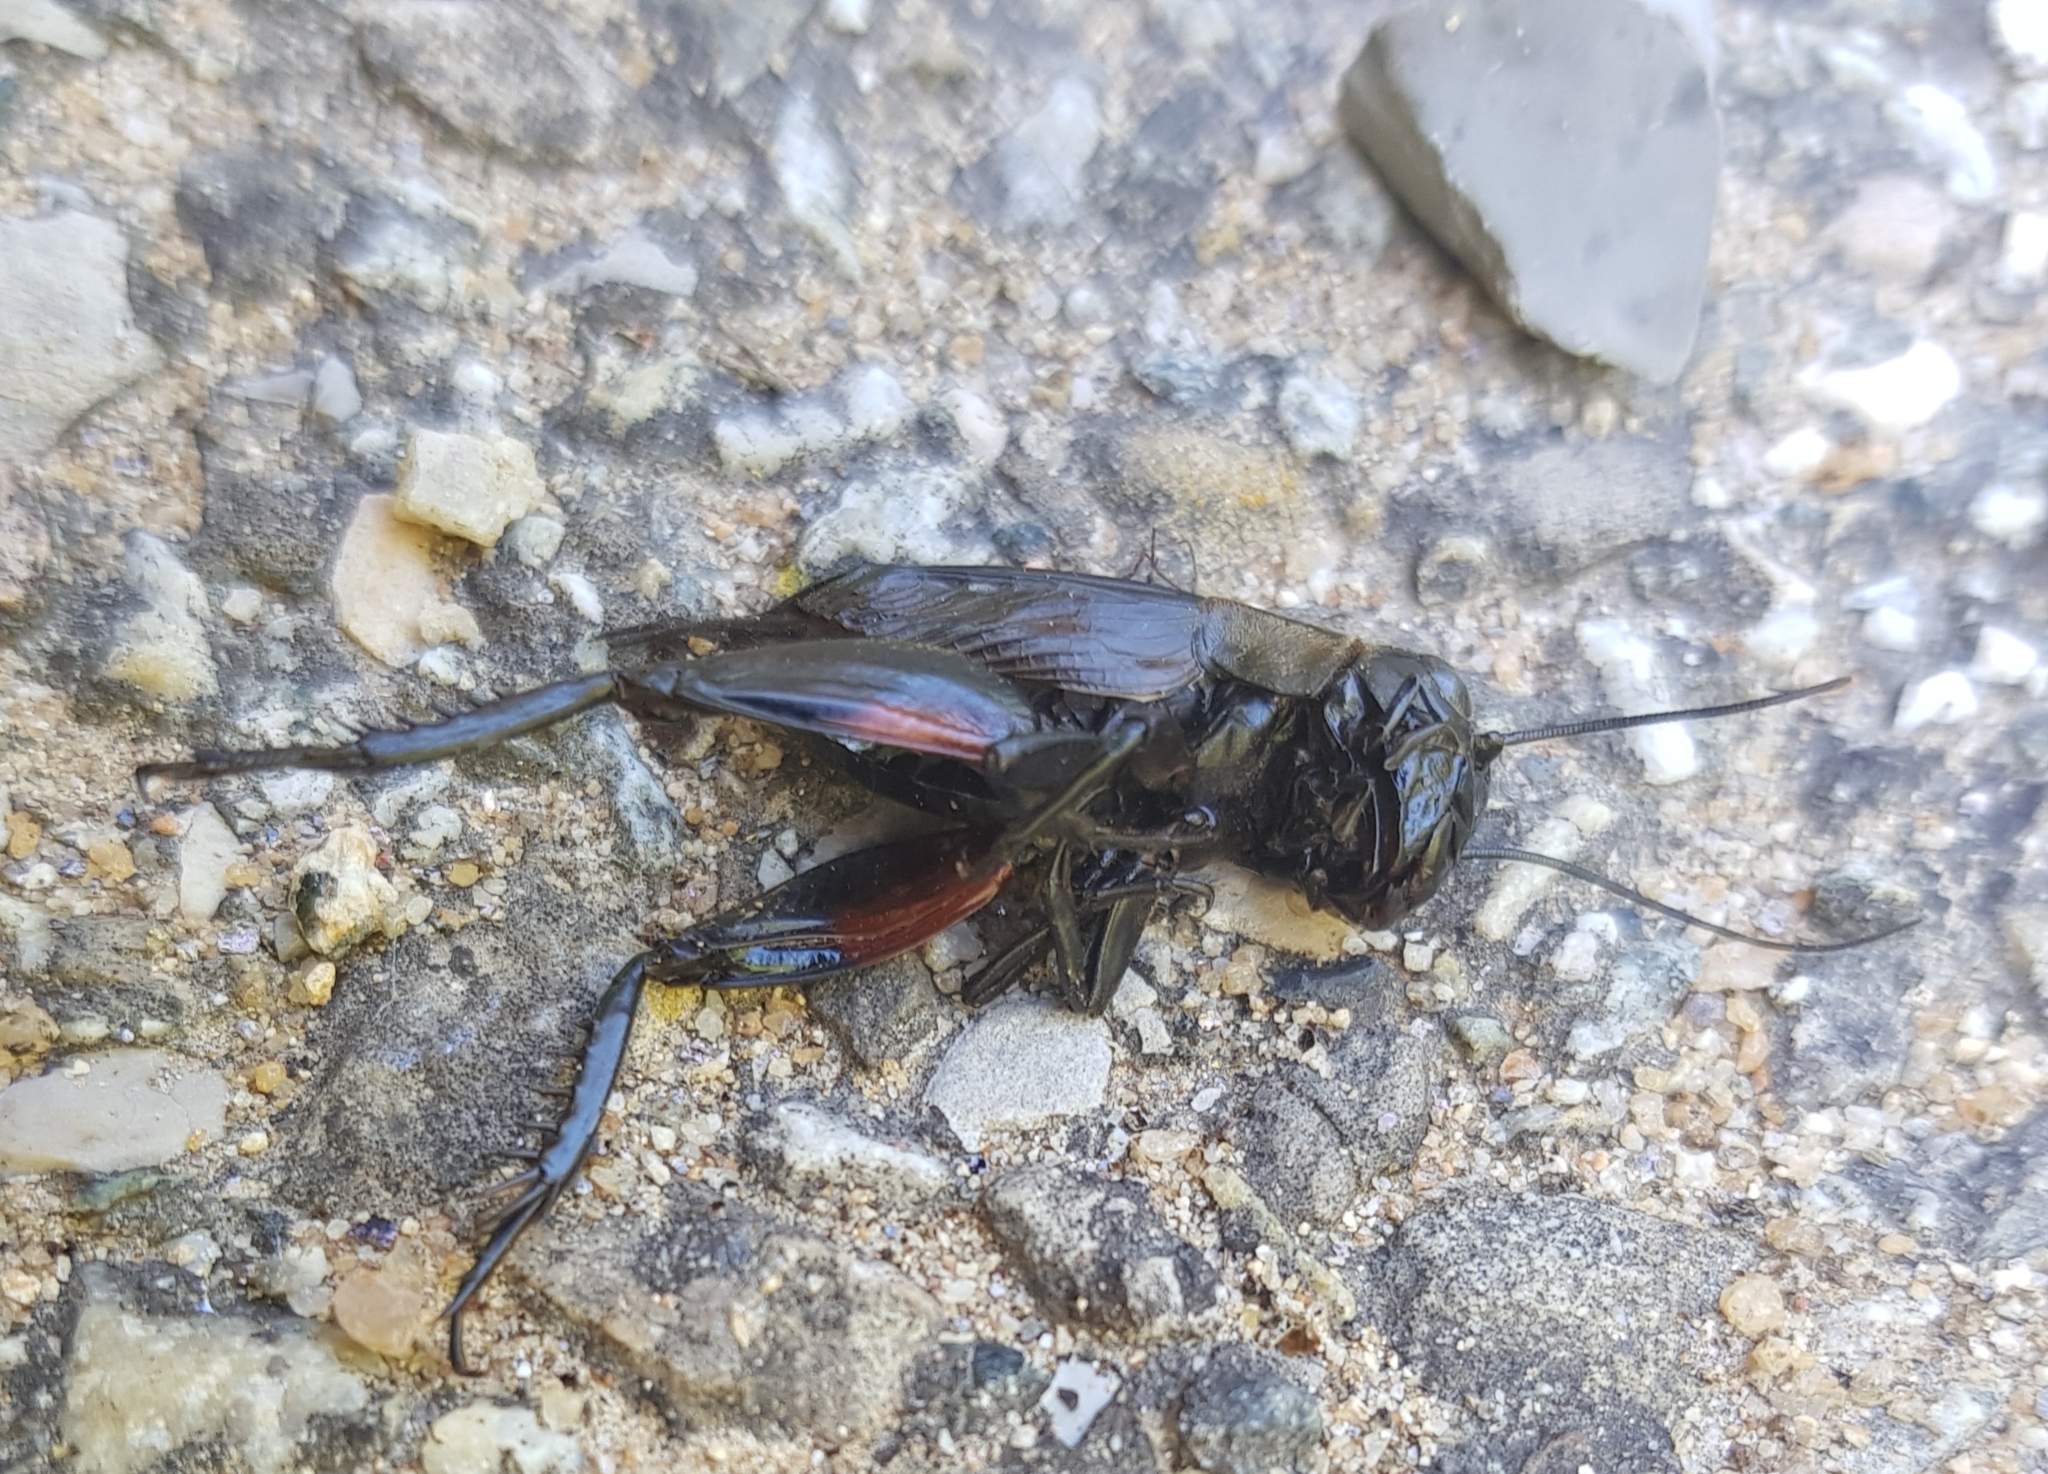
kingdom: Animalia
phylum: Arthropoda
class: Insecta
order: Orthoptera
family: Gryllidae
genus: Gryllus
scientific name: Gryllus campestris
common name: Field cricket
